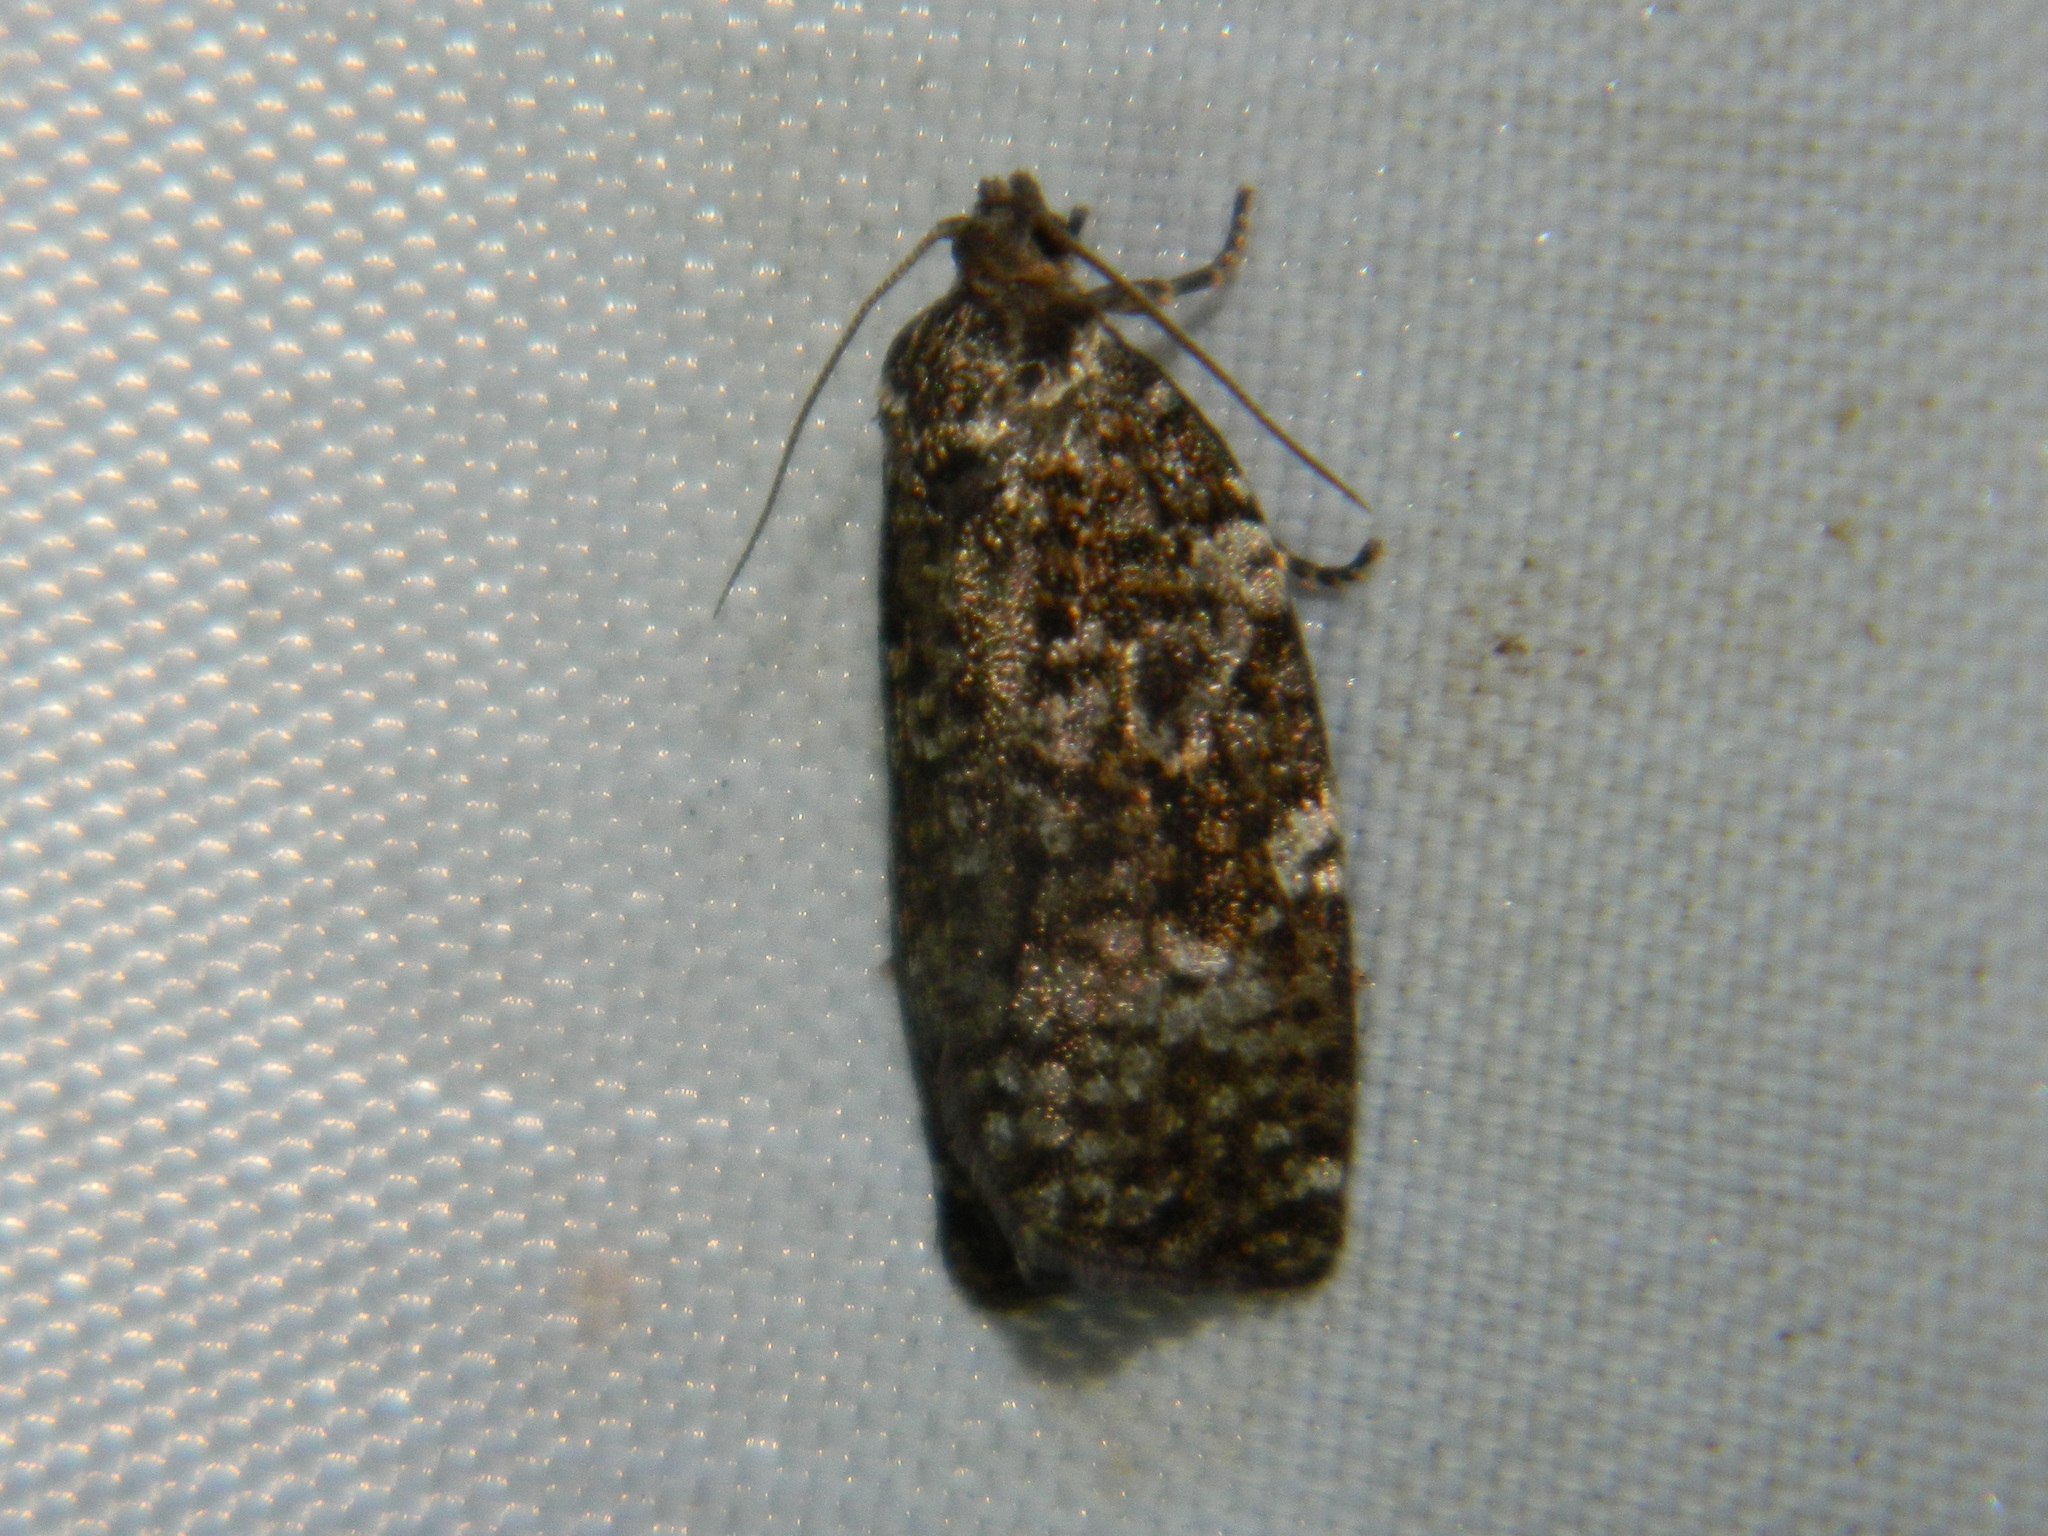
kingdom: Animalia
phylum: Arthropoda
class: Insecta
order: Lepidoptera
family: Tortricidae
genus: Choristoneura
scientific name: Choristoneura fumiferana
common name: Spruce budworm
